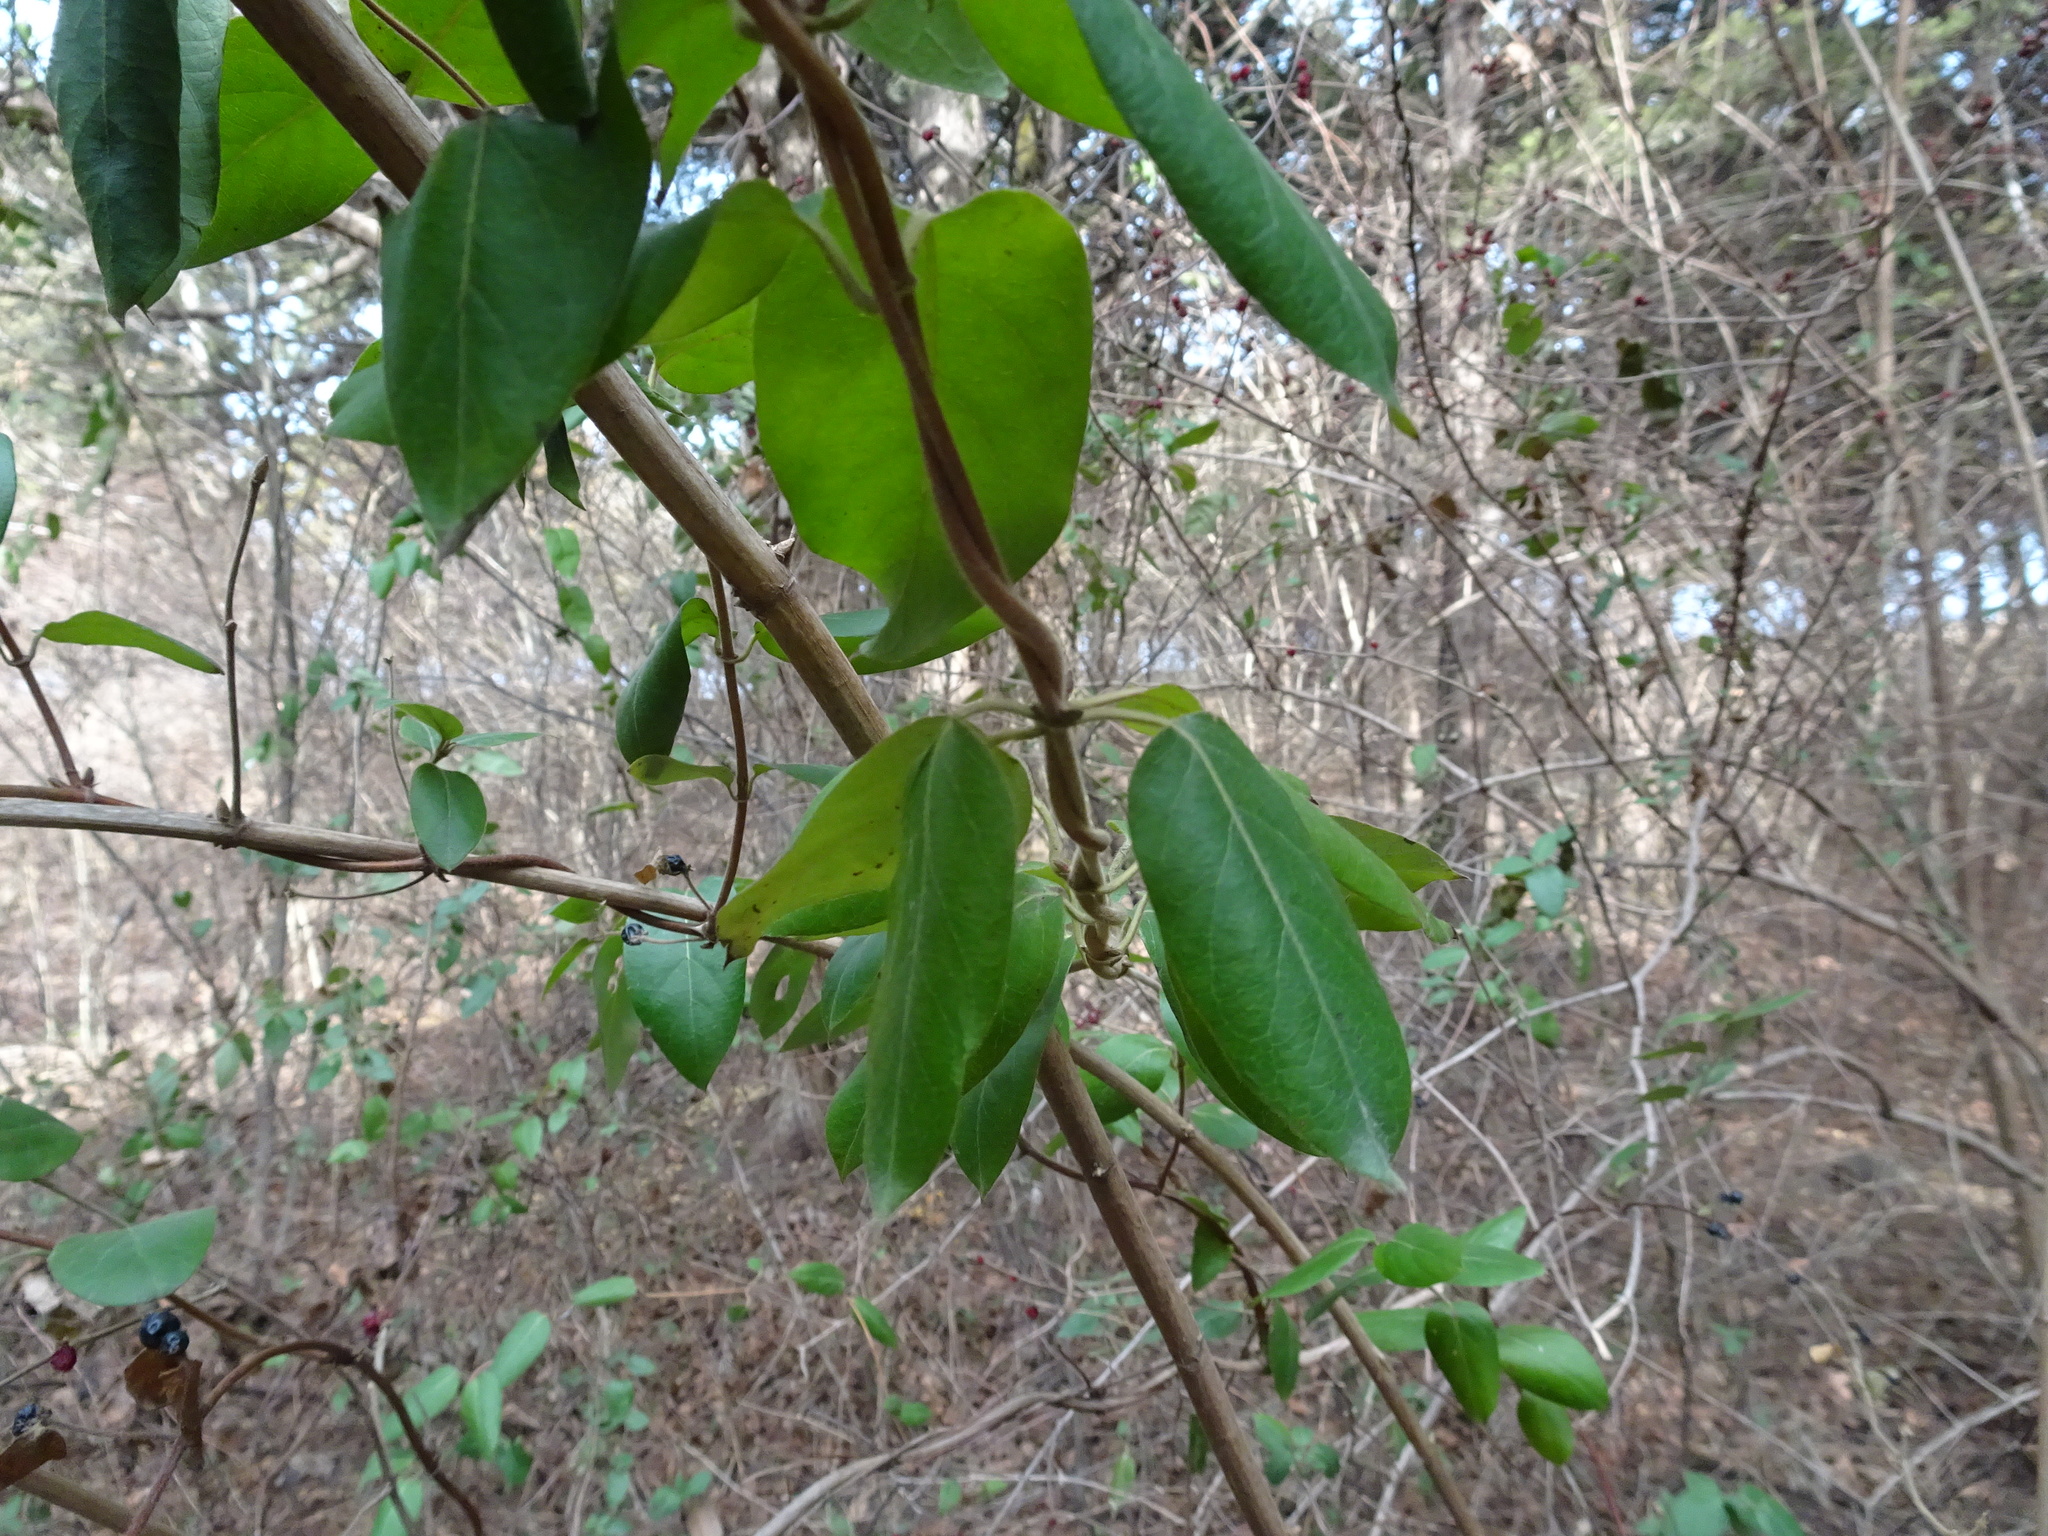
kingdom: Plantae
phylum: Tracheophyta
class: Magnoliopsida
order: Dipsacales
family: Caprifoliaceae
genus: Lonicera
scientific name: Lonicera japonica
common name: Japanese honeysuckle
